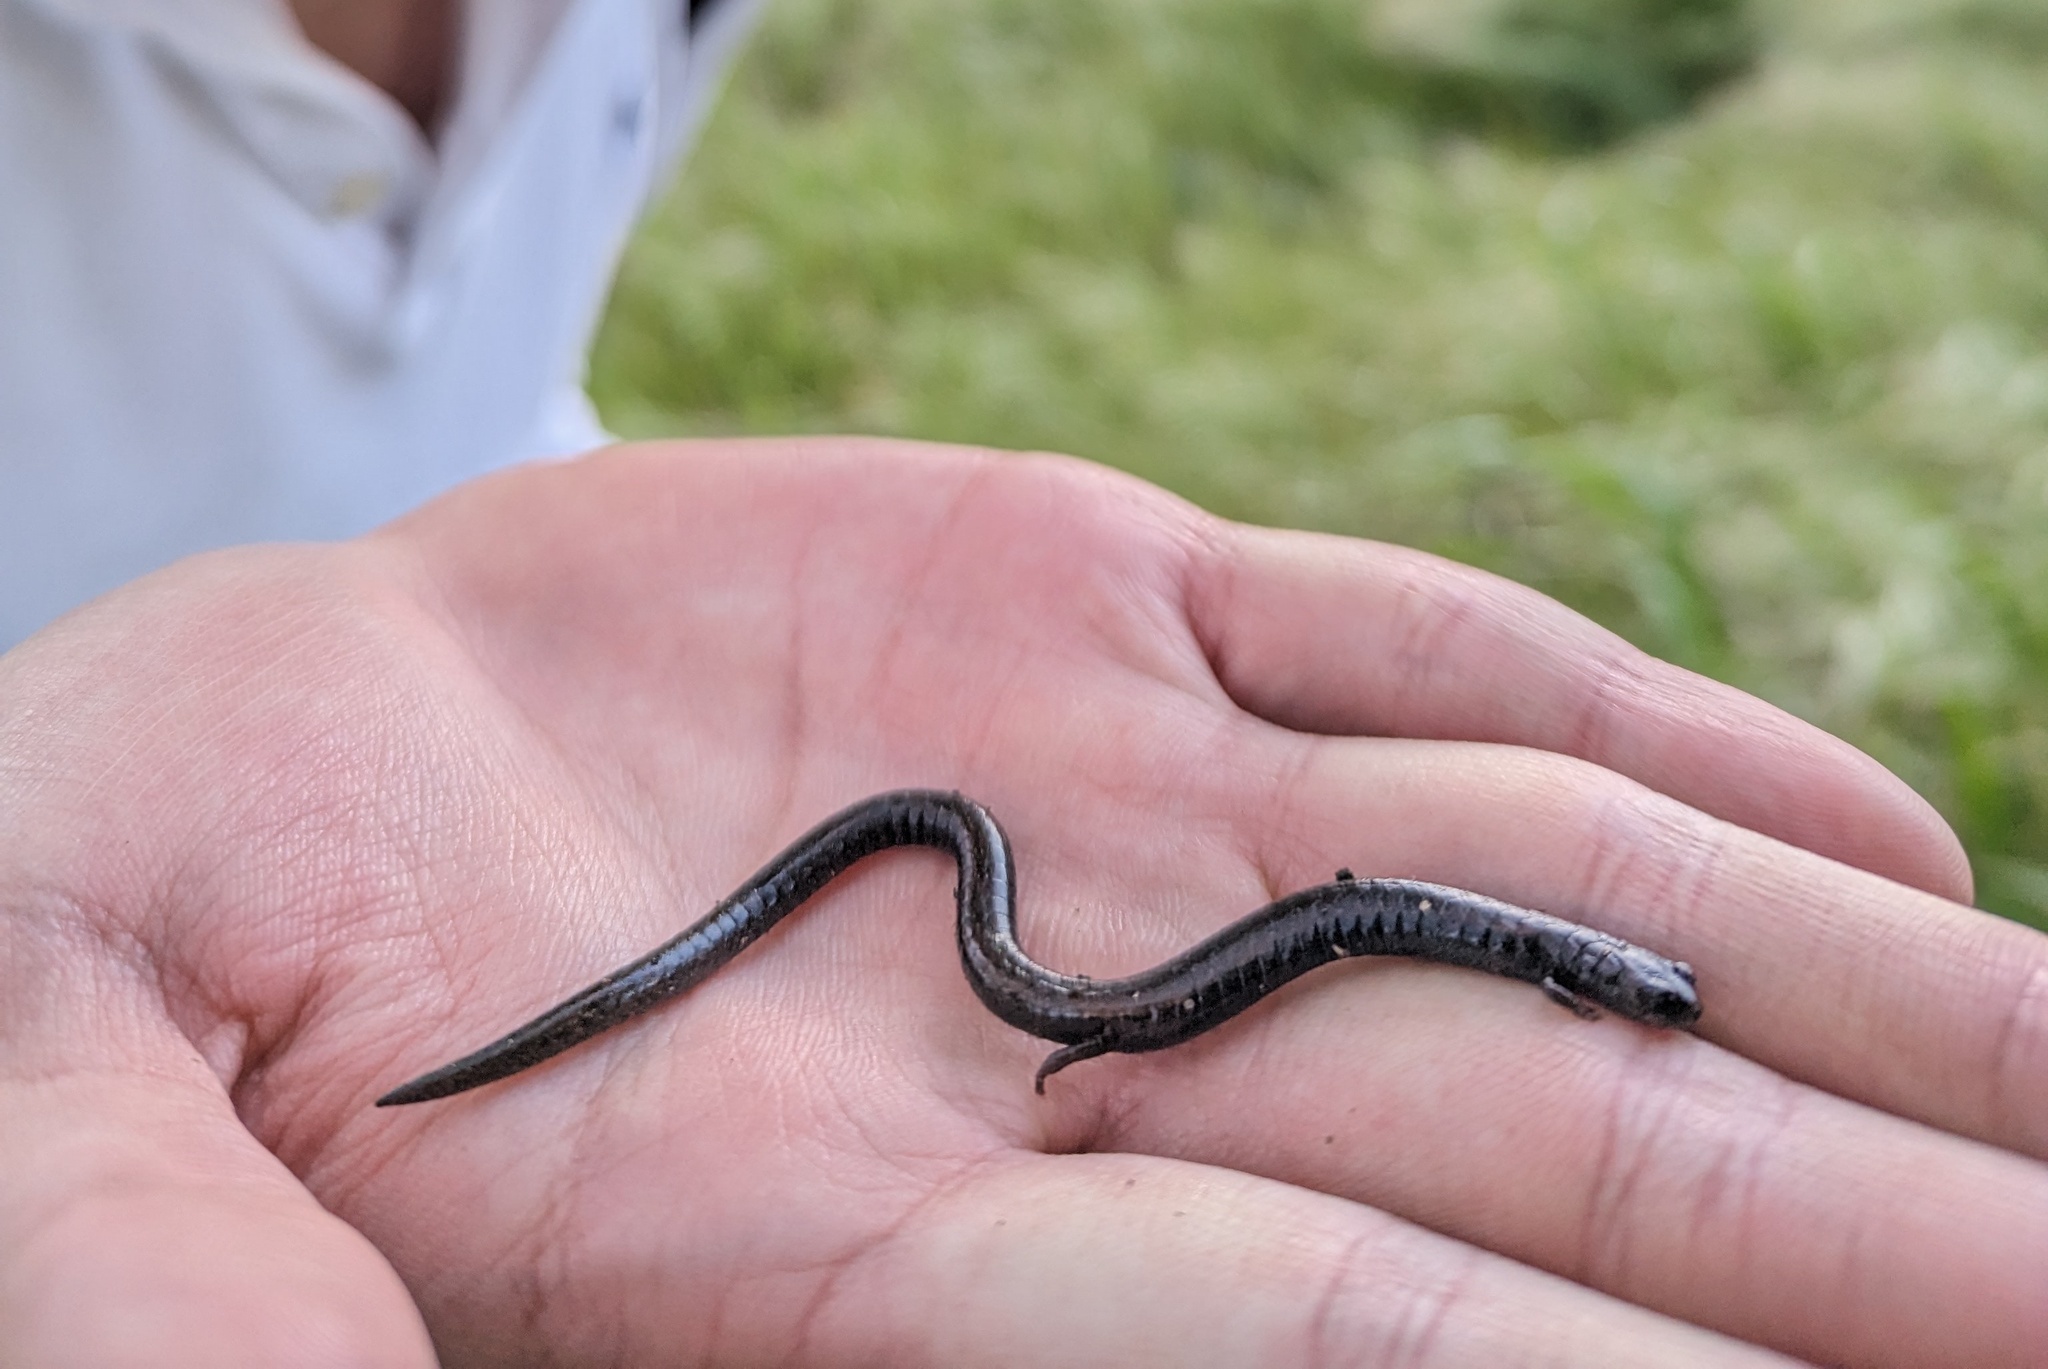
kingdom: Animalia
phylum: Chordata
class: Amphibia
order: Caudata
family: Plethodontidae
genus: Batrachoseps
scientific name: Batrachoseps nigriventris
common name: Black-bellied slender salamander
